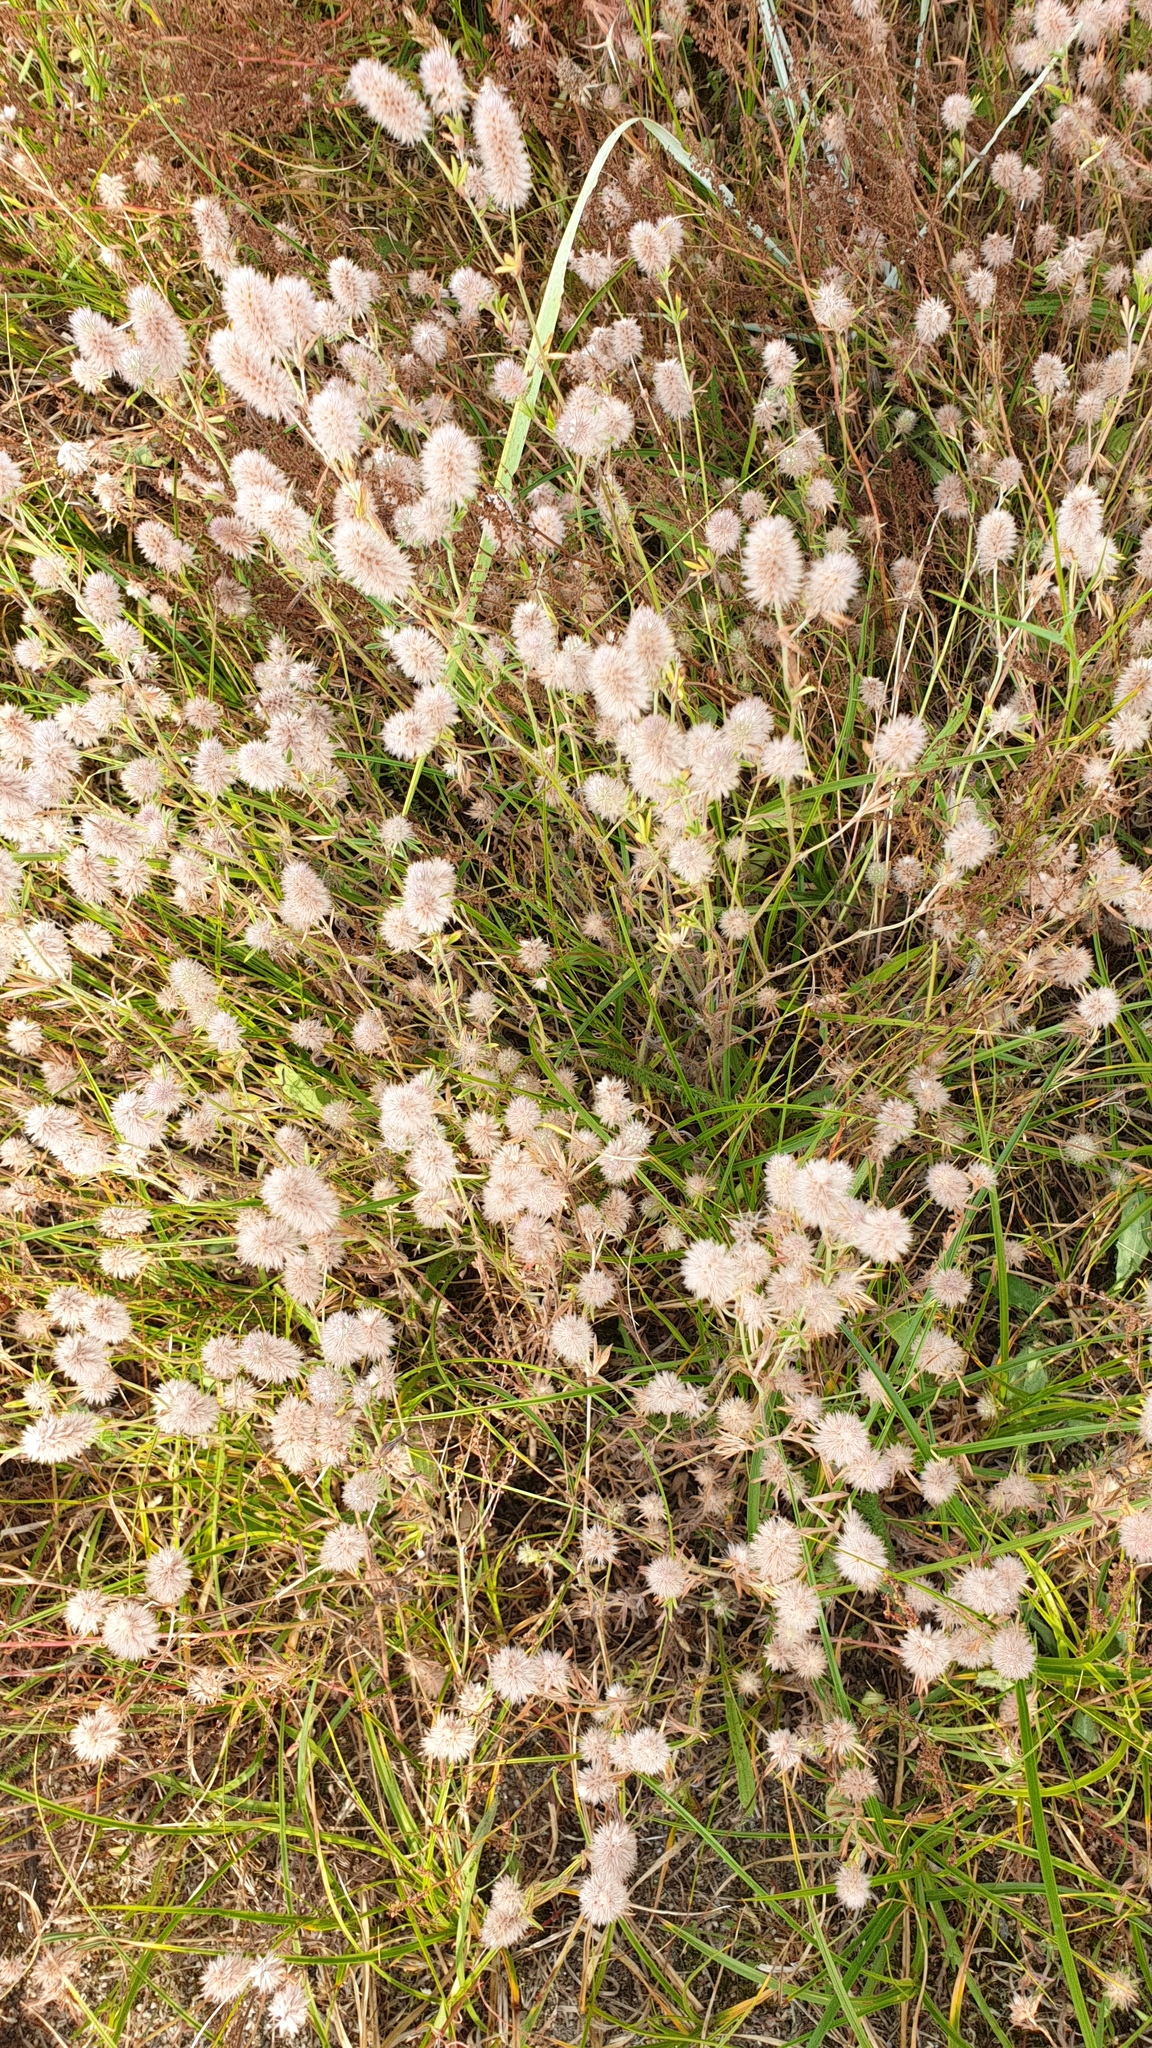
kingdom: Plantae
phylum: Tracheophyta
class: Magnoliopsida
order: Fabales
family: Fabaceae
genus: Trifolium
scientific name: Trifolium arvense
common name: Hare's-foot clover
